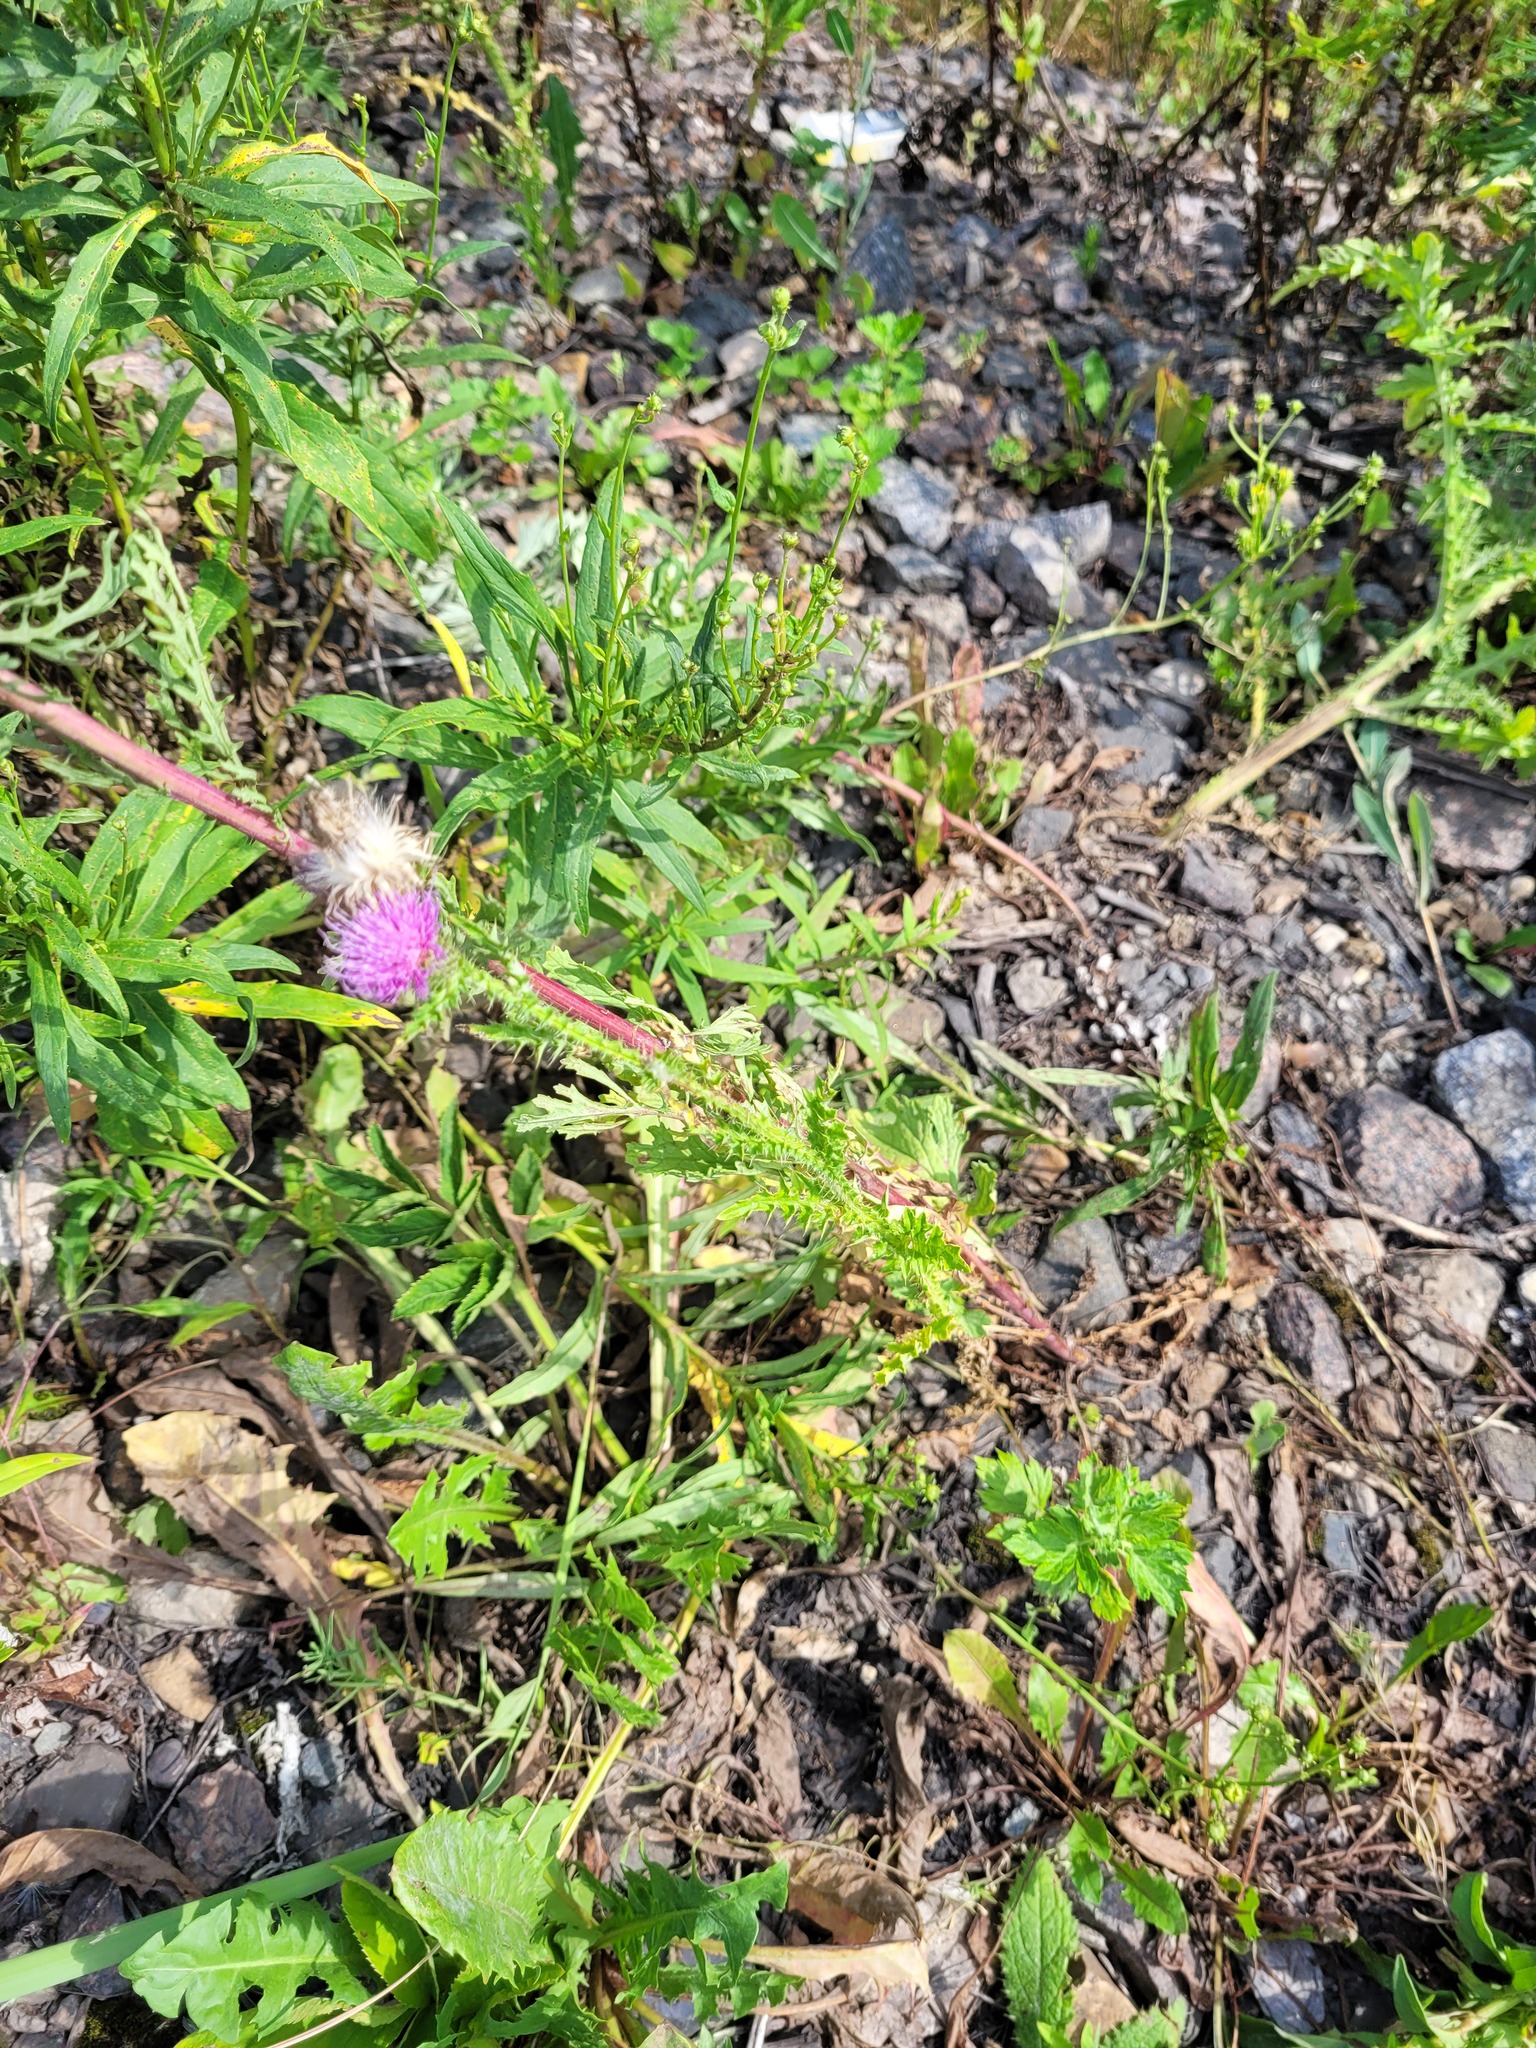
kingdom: Plantae
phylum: Tracheophyta
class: Magnoliopsida
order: Asterales
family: Asteraceae
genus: Carduus
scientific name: Carduus acanthoides
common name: Plumeless thistle
